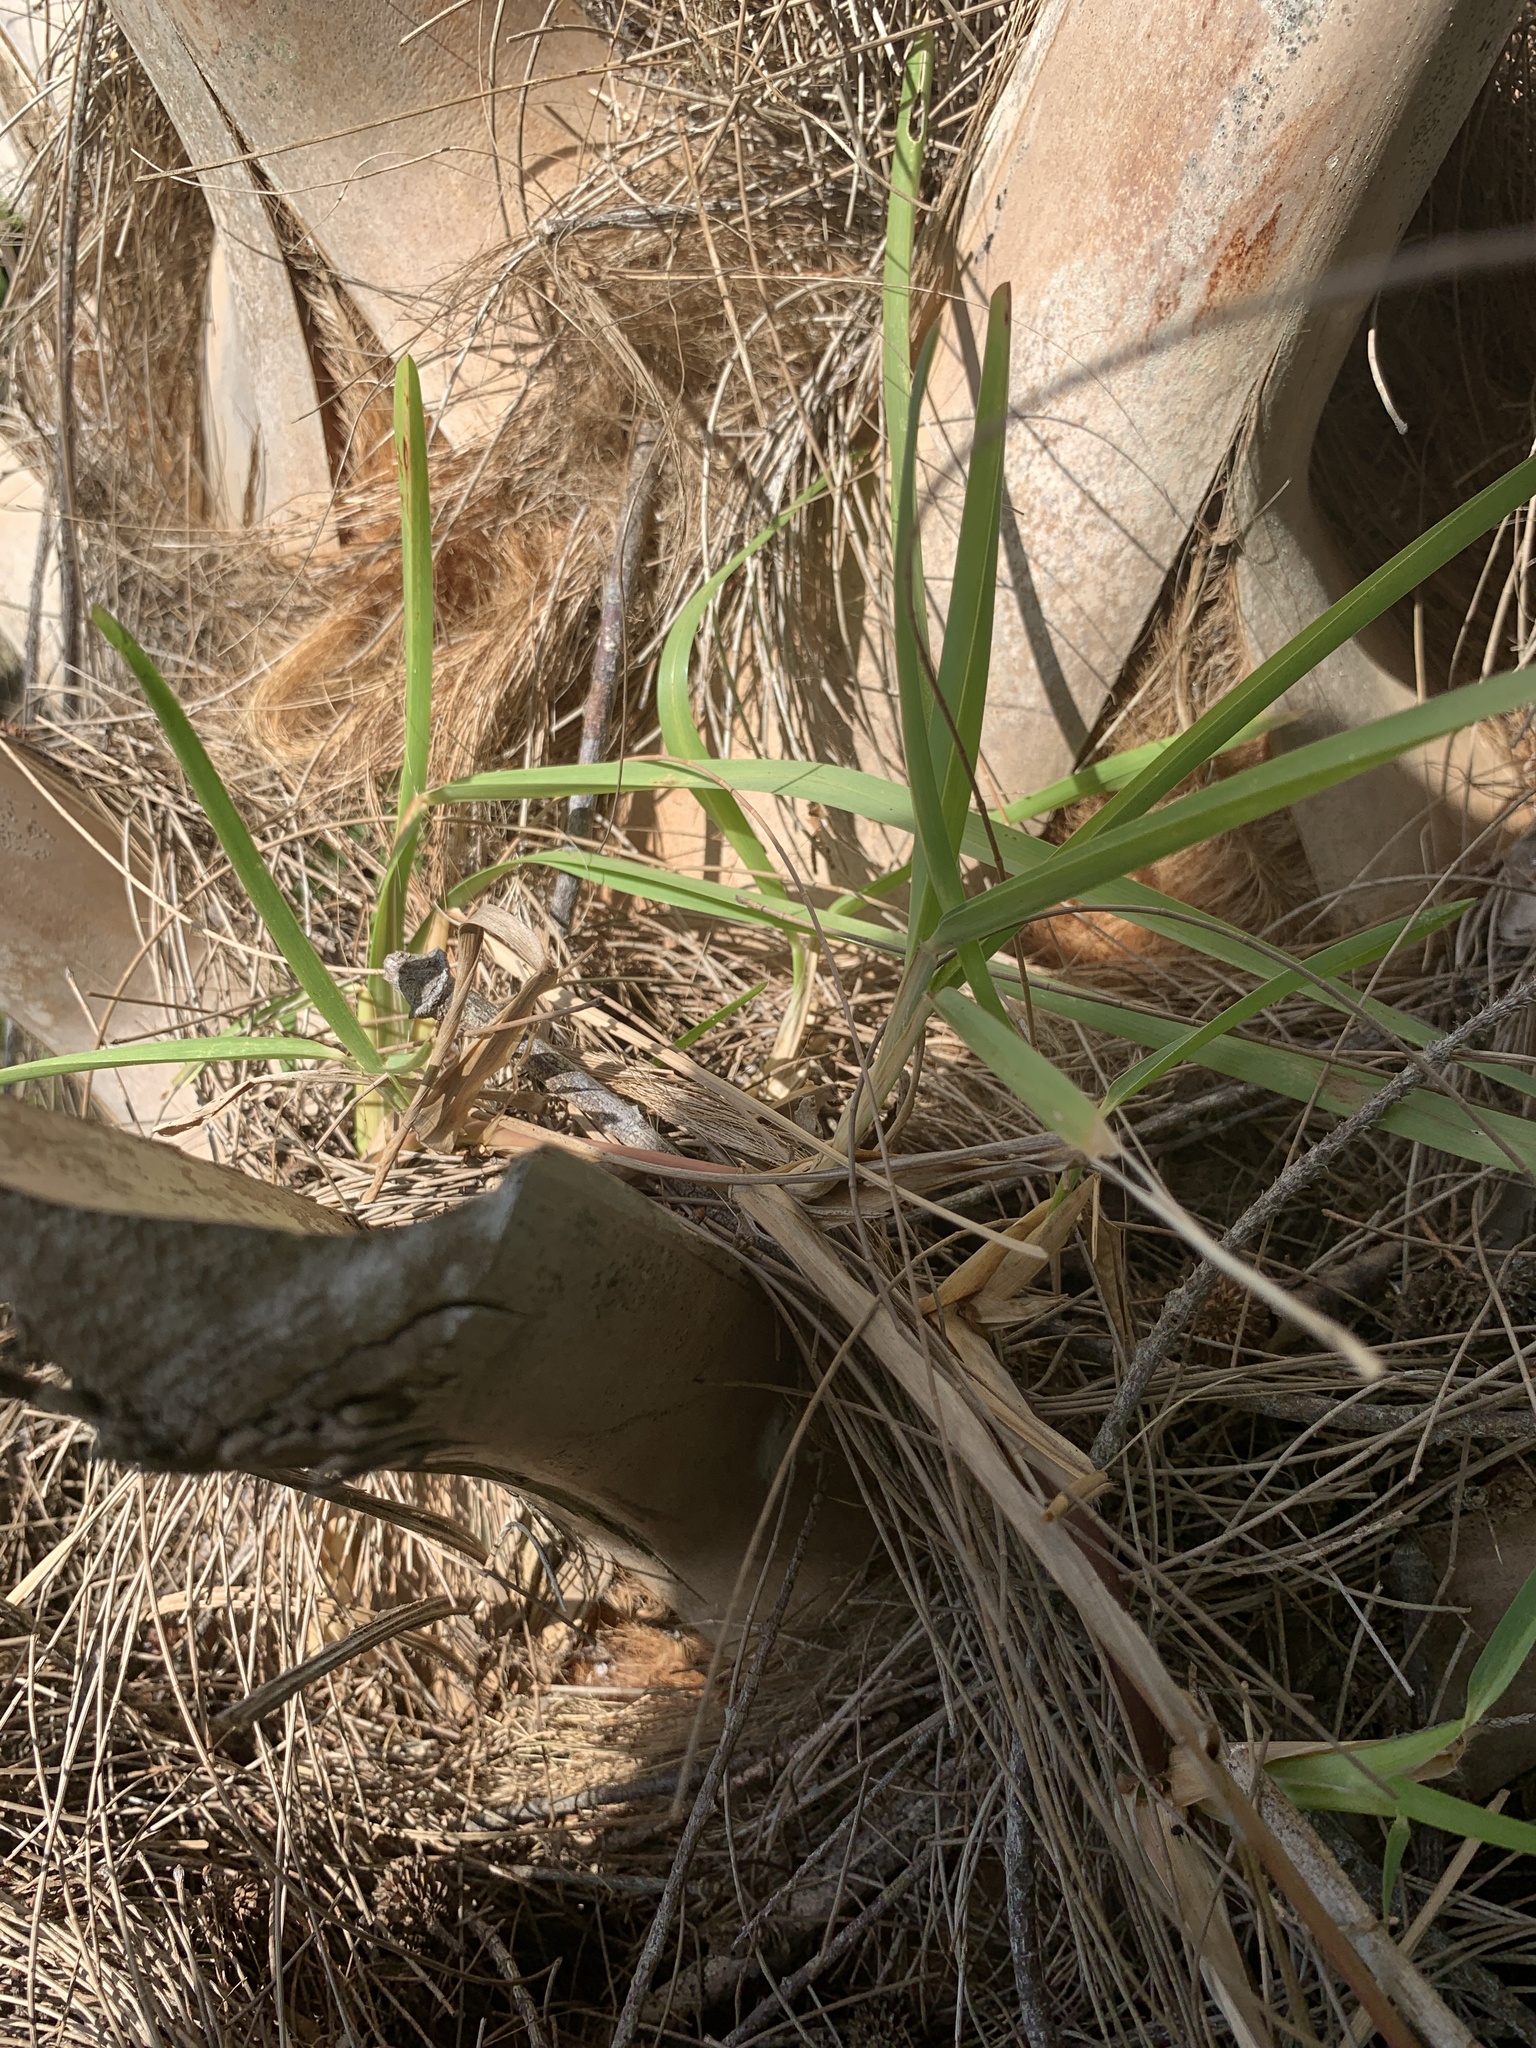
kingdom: Plantae
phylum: Tracheophyta
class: Liliopsida
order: Poales
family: Poaceae
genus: Stenotaphrum
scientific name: Stenotaphrum secundatum
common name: St. augustine grass
